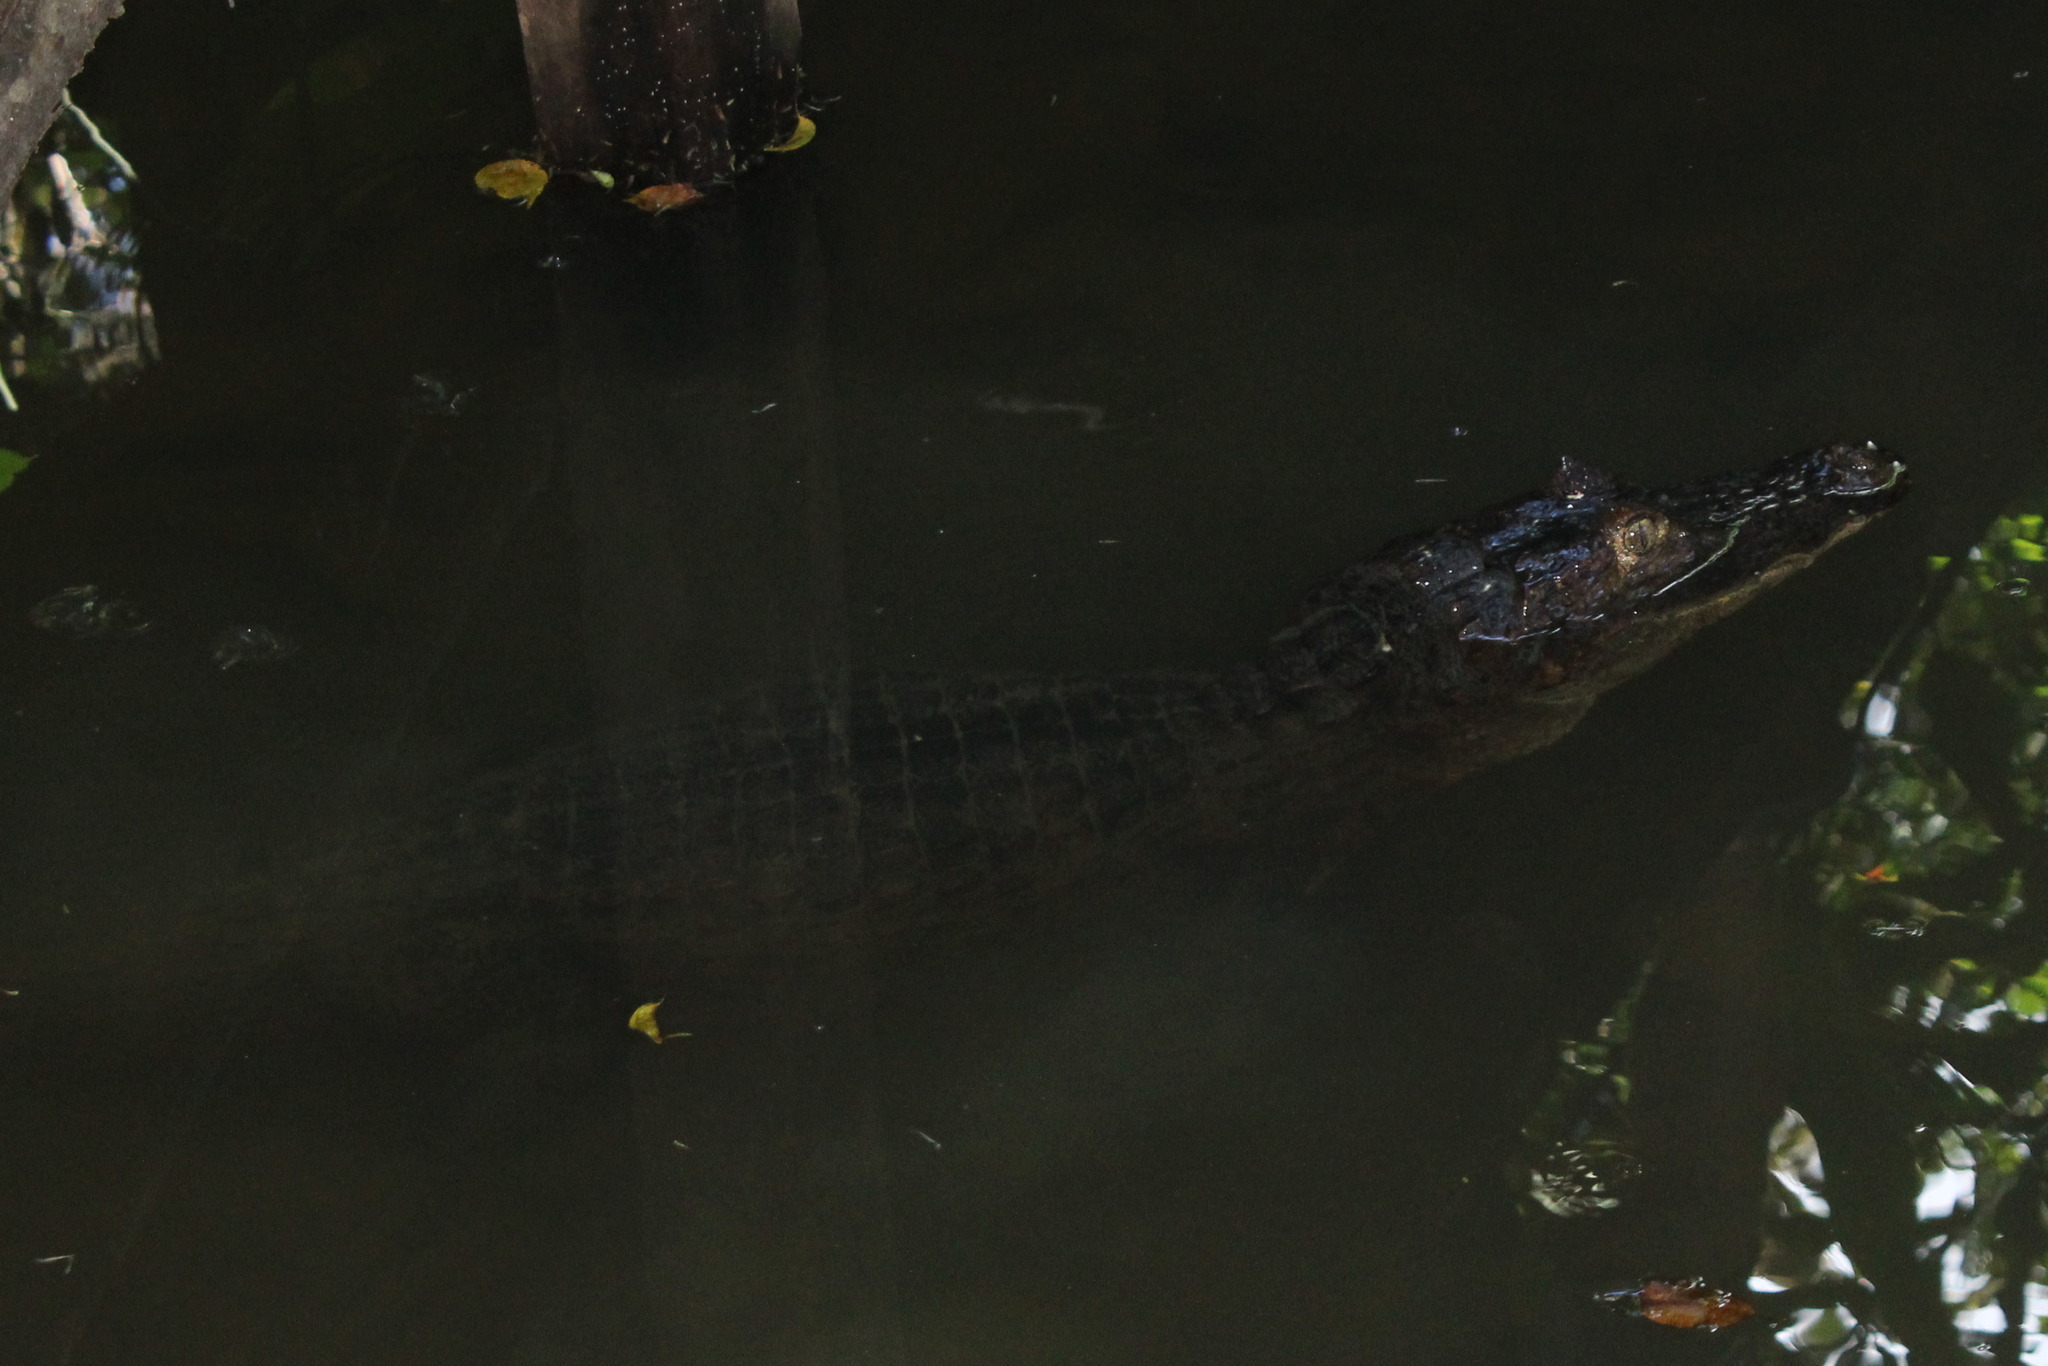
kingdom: Animalia
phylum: Chordata
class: Crocodylia
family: Alligatoridae
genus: Caiman
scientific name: Caiman crocodilus
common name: Common caiman
